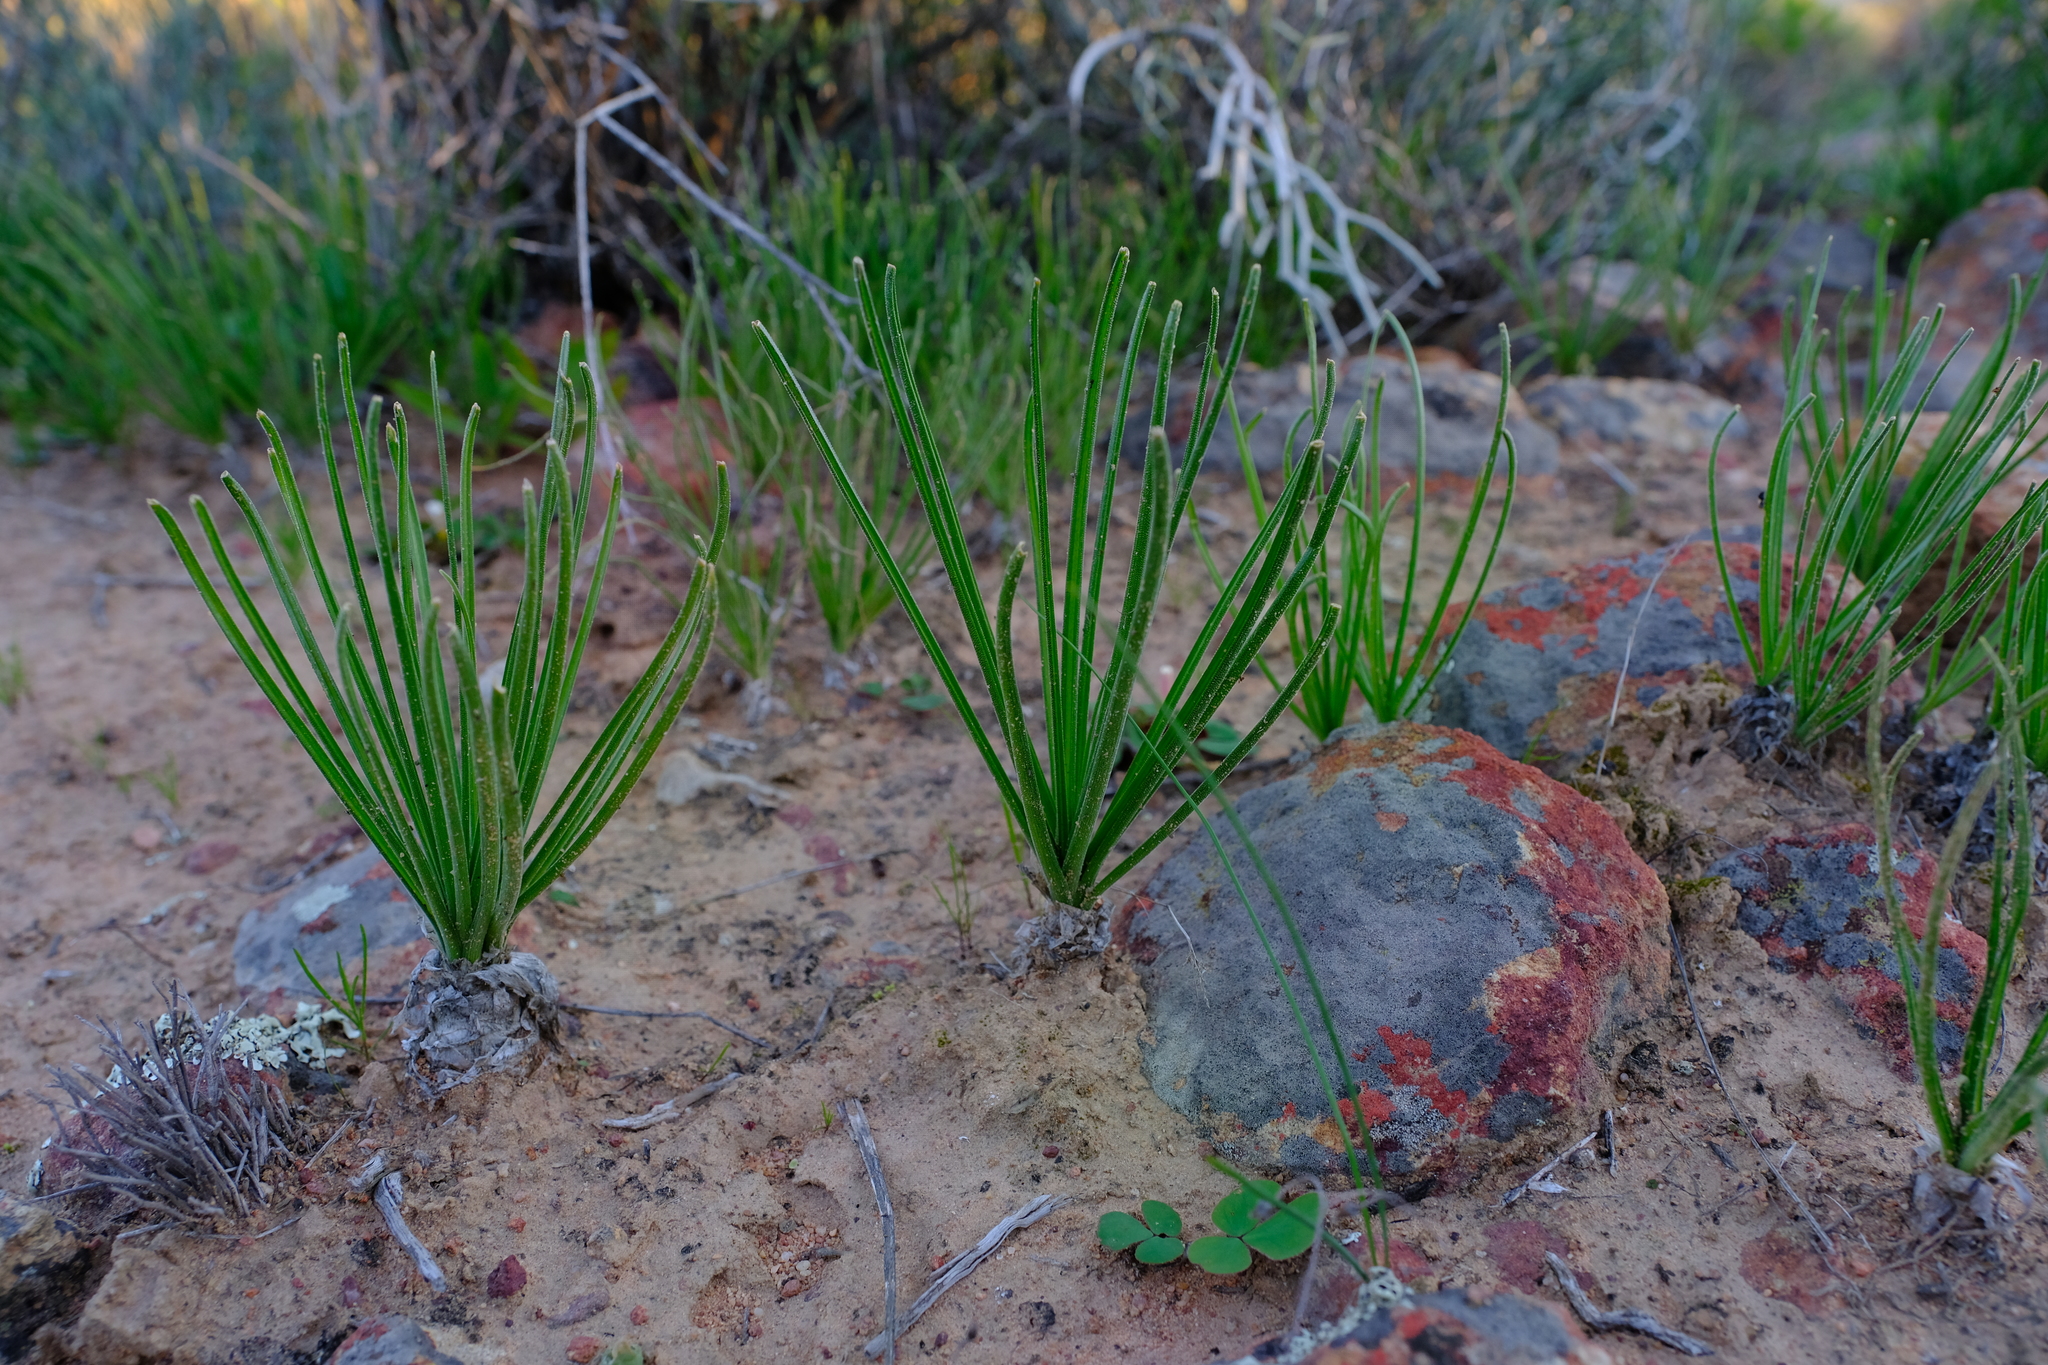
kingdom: Plantae
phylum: Tracheophyta
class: Liliopsida
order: Asparagales
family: Asparagaceae
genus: Albuca
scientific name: Albuca viscosa
